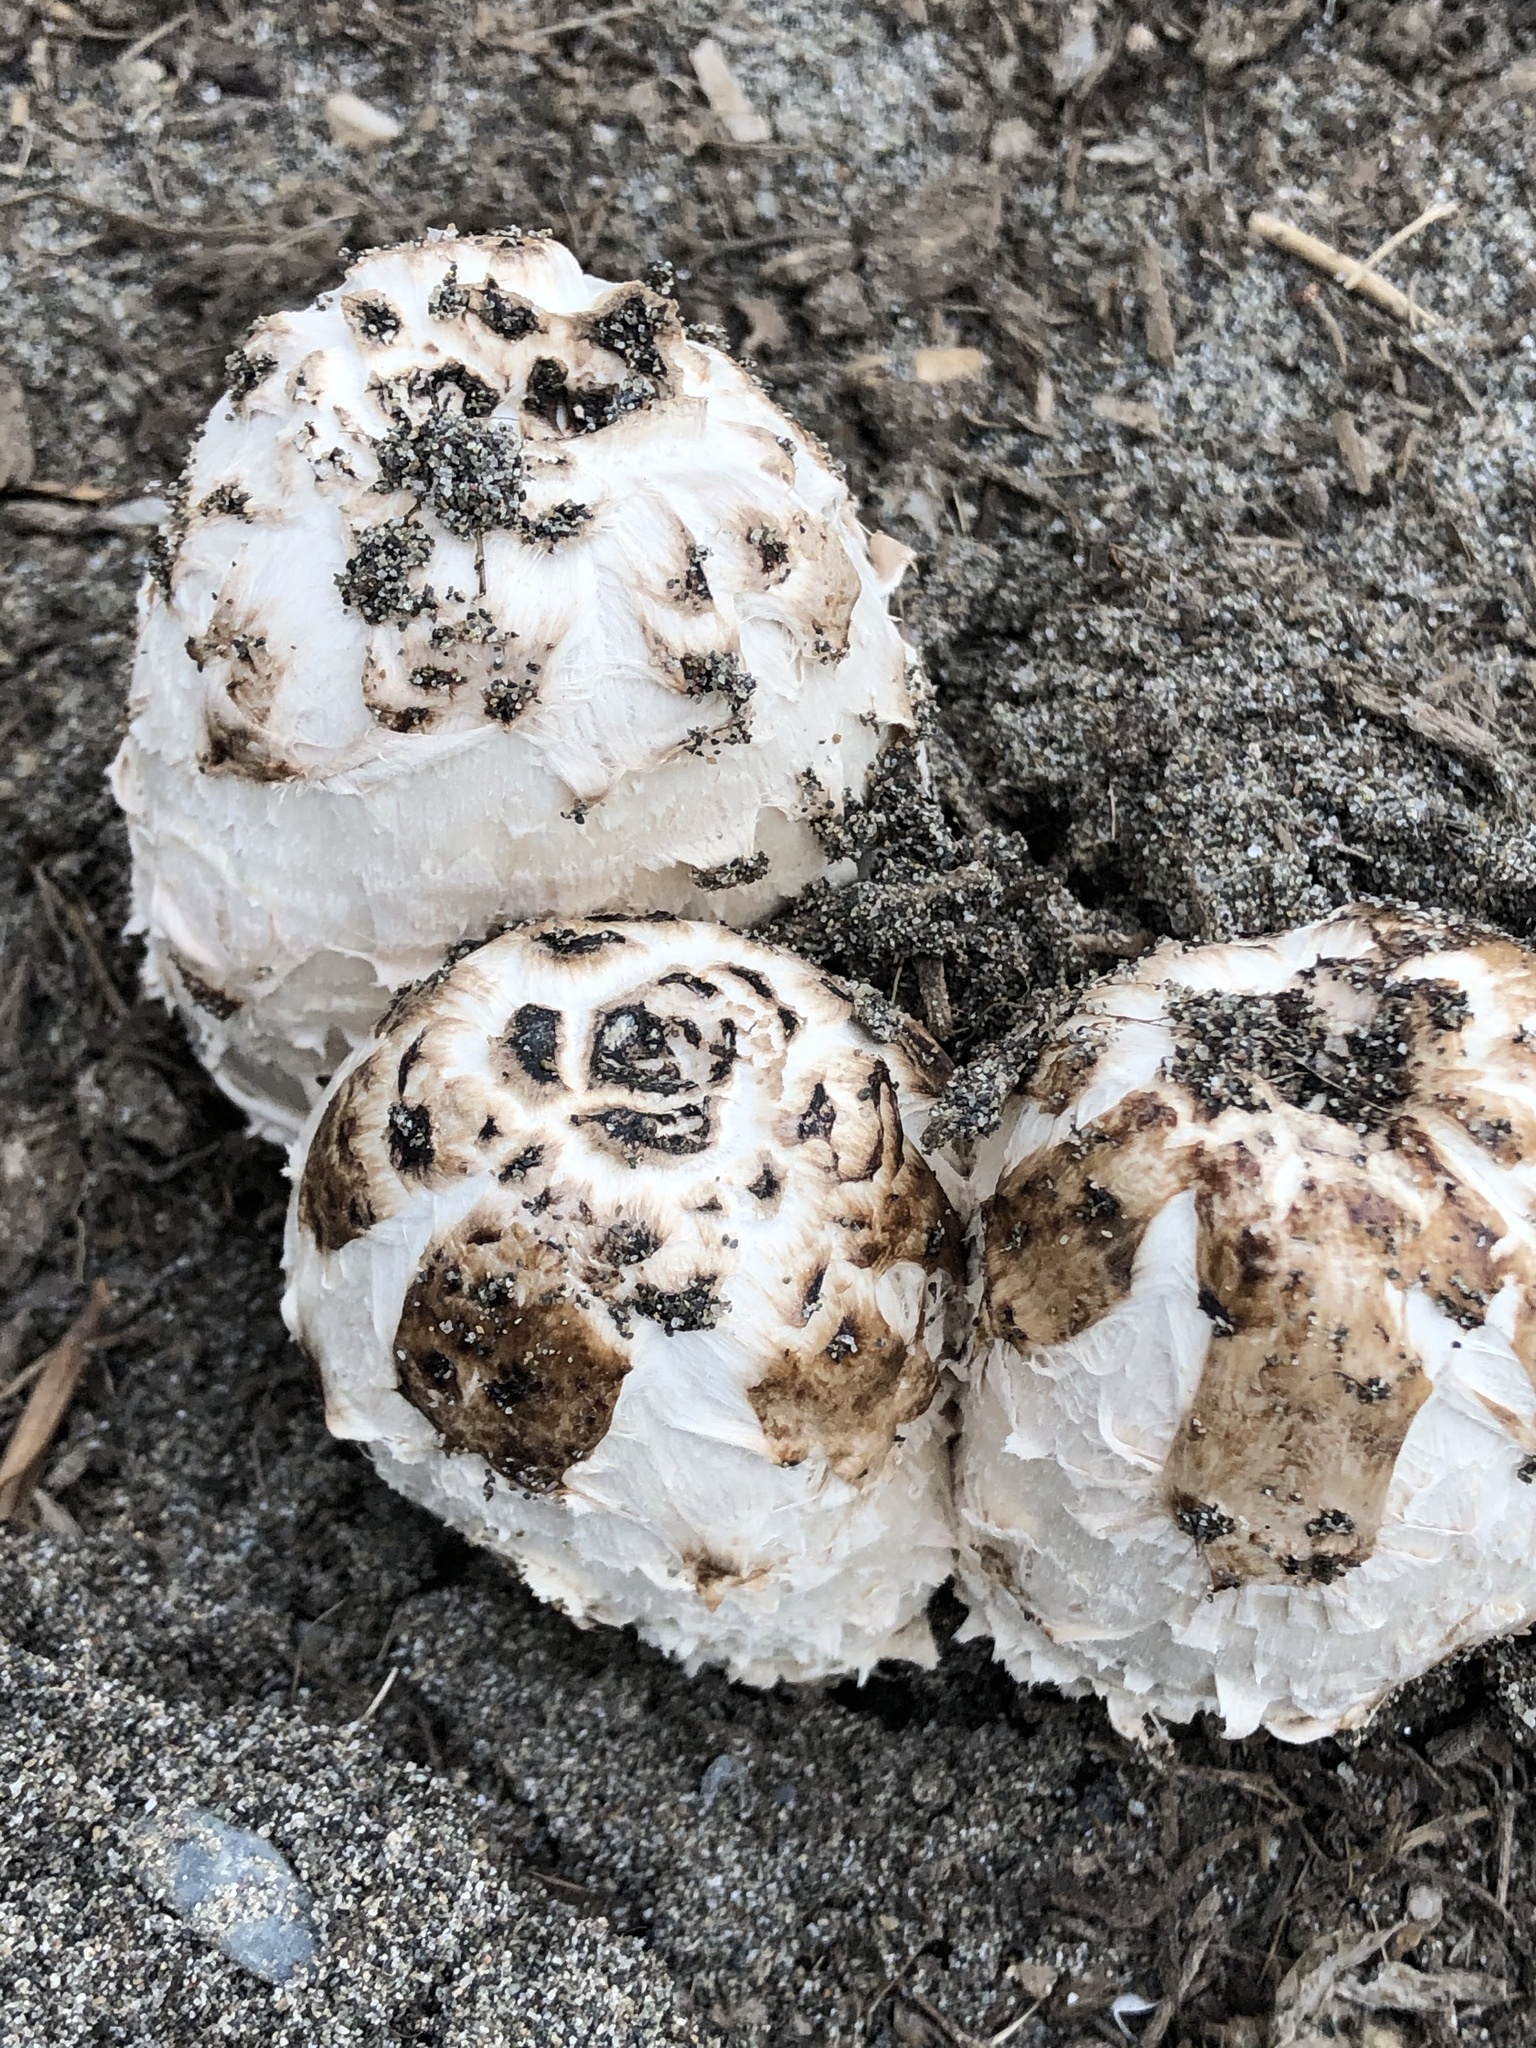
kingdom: Fungi
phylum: Basidiomycota
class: Agaricomycetes
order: Agaricales
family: Agaricaceae
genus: Coprinus
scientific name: Coprinus comatus
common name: Lawyer's wig
